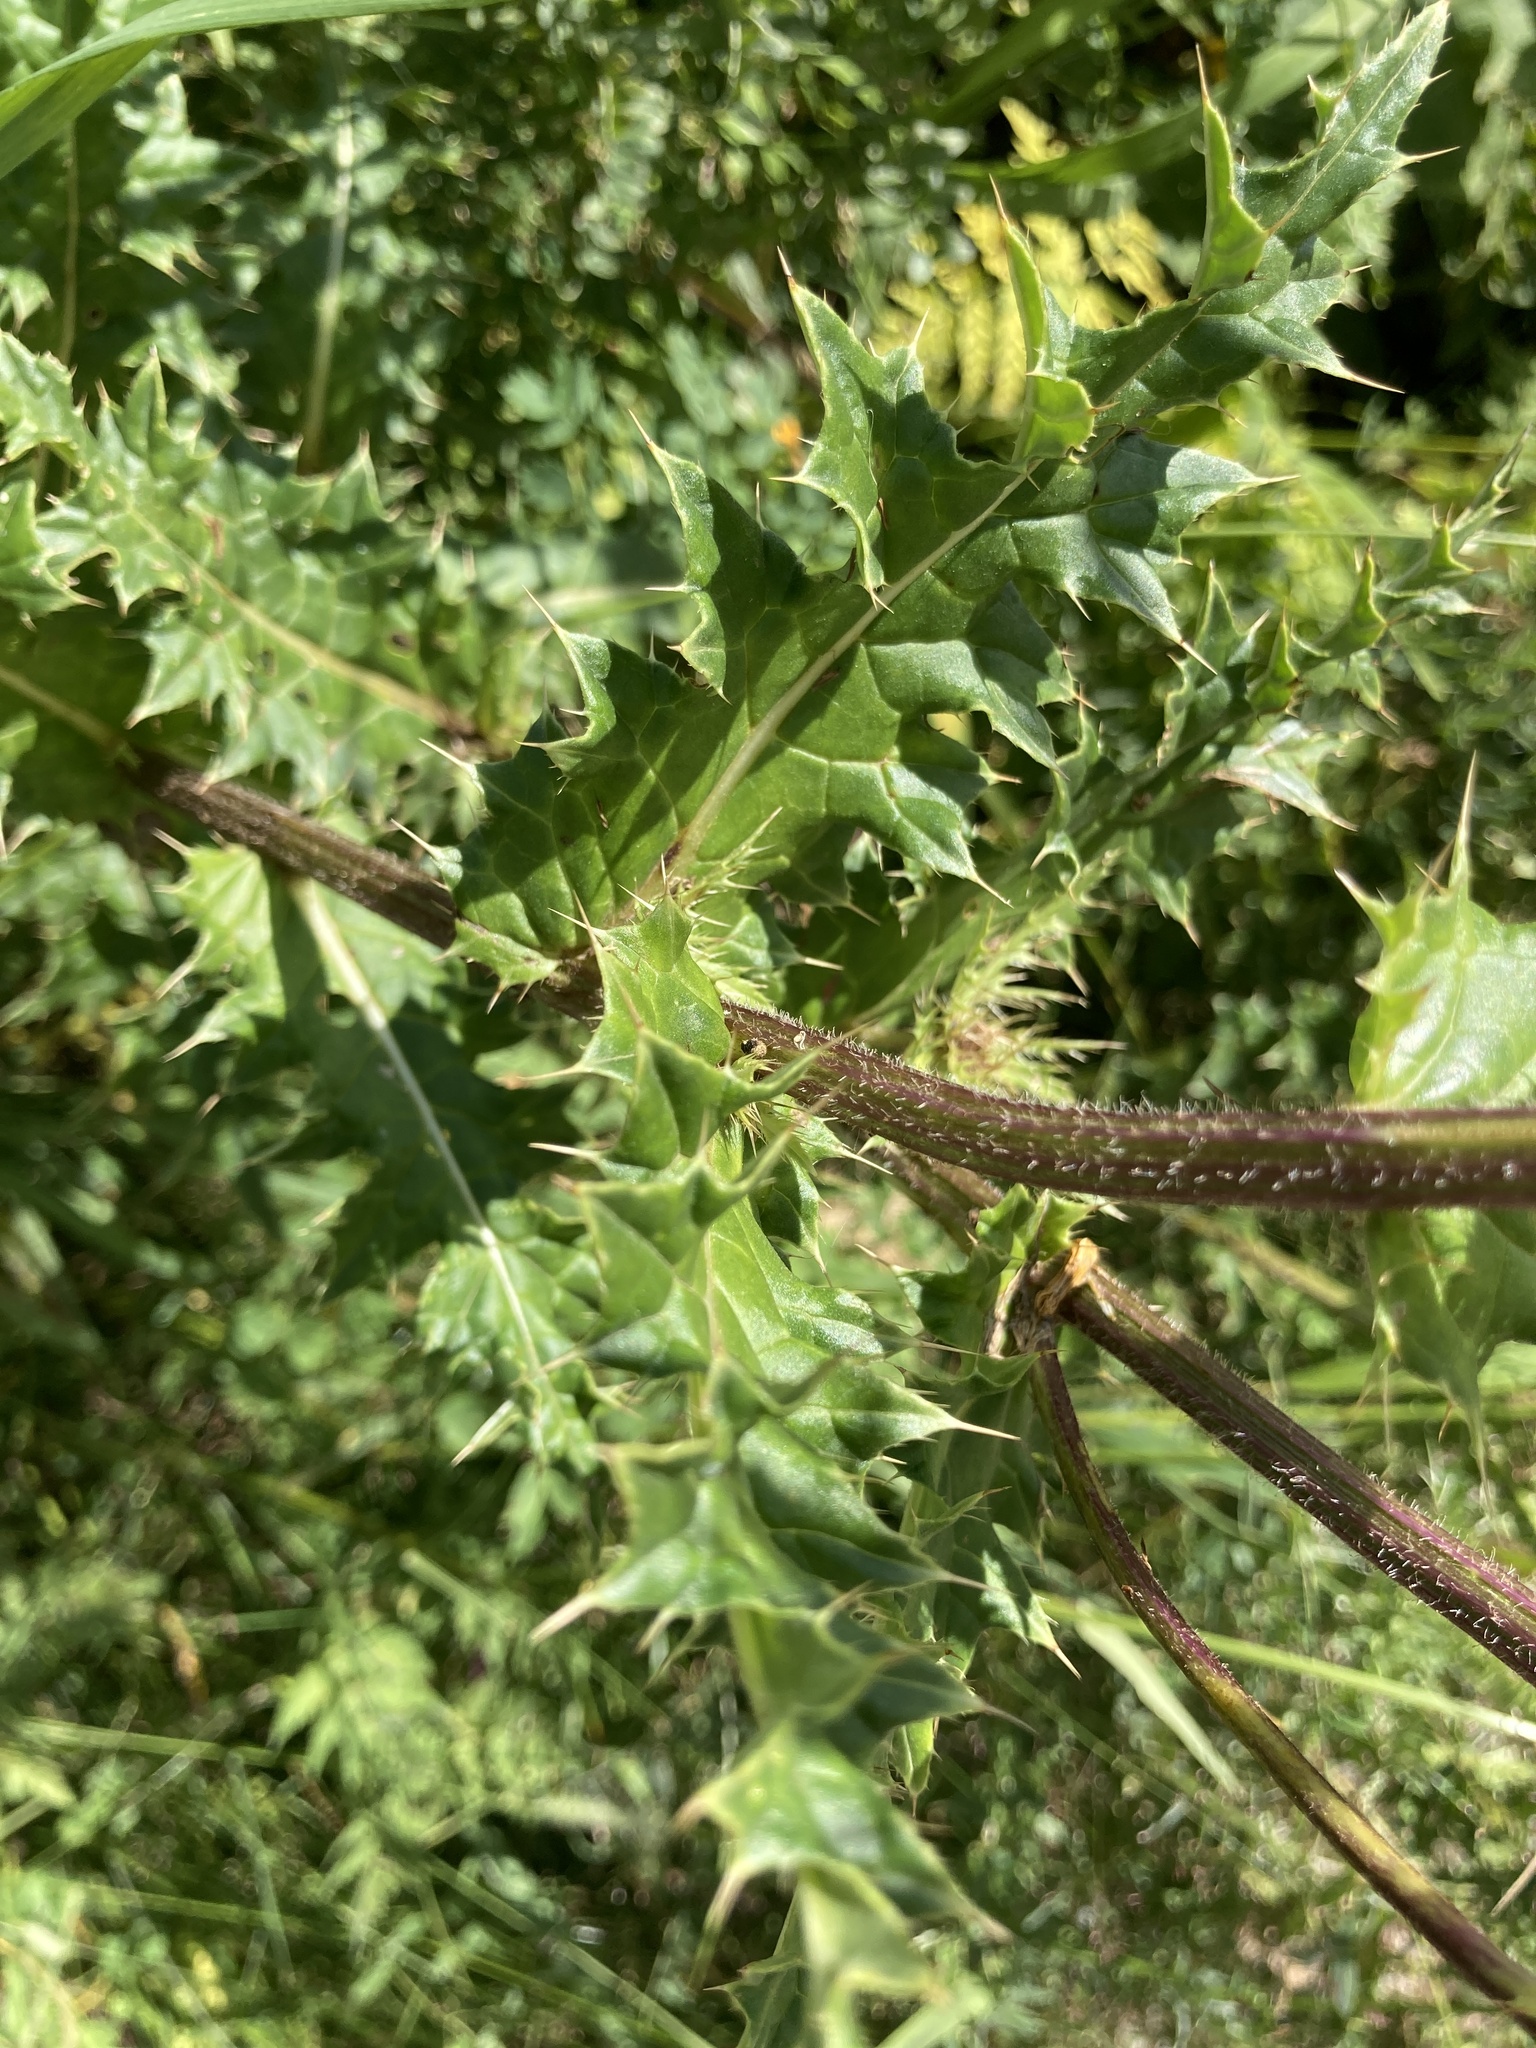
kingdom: Plantae
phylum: Tracheophyta
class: Magnoliopsida
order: Asterales
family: Asteraceae
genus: Cirsium
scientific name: Cirsium obvallatum
